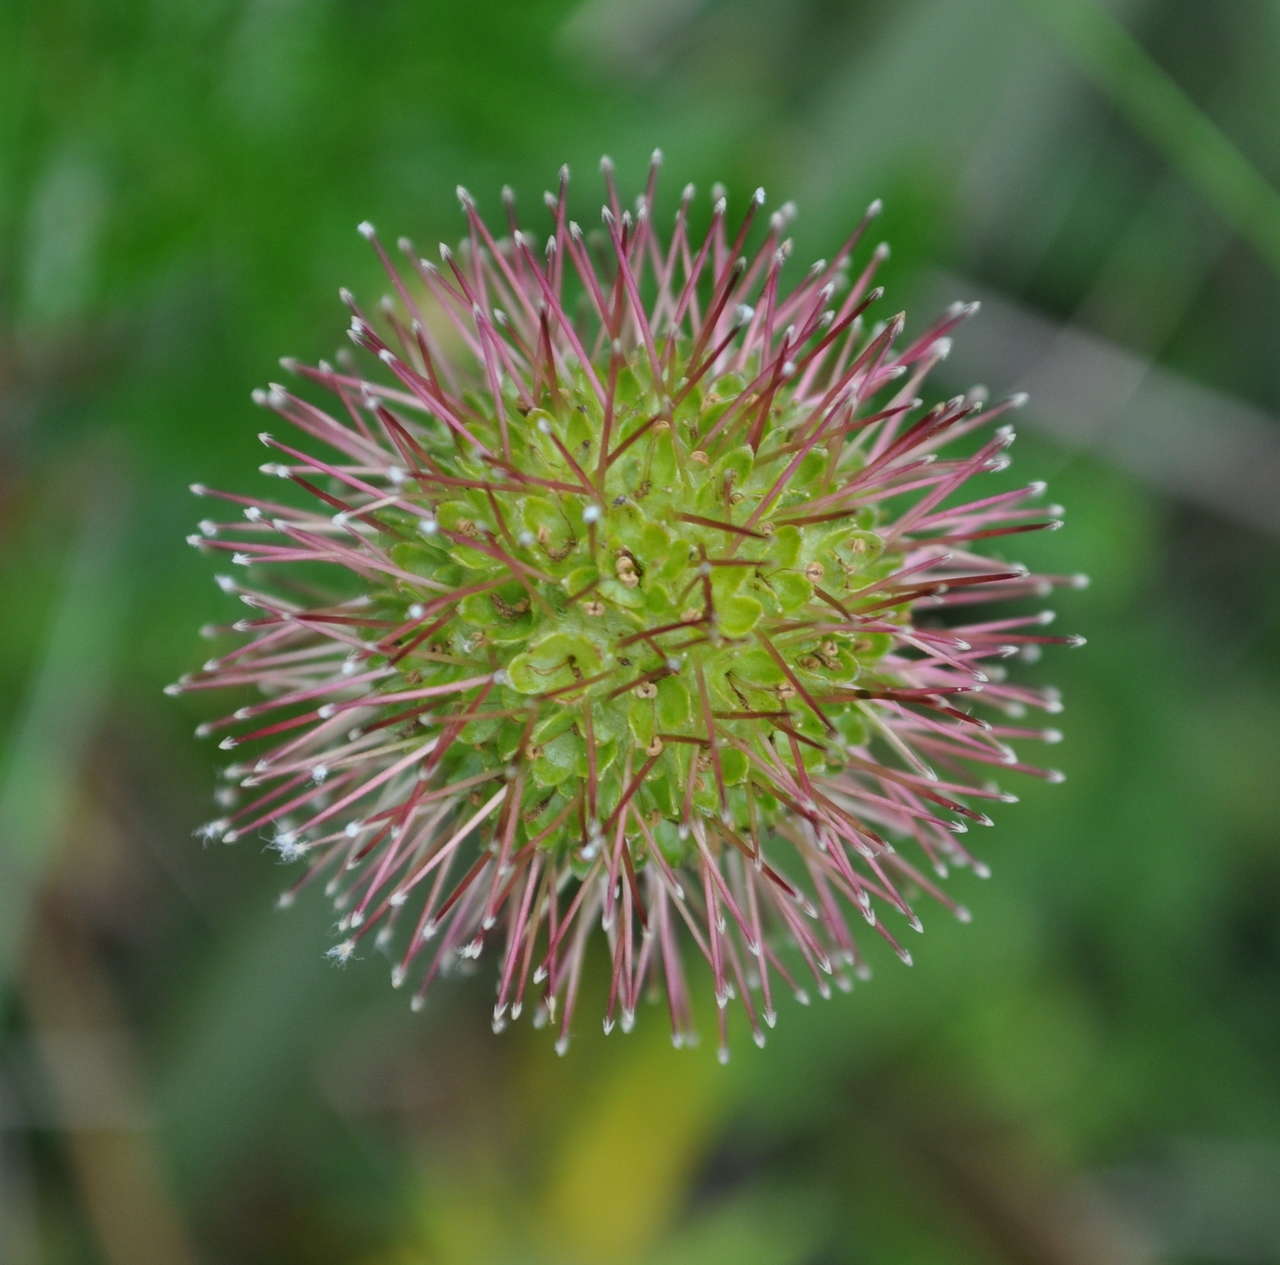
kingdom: Plantae
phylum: Tracheophyta
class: Magnoliopsida
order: Rosales
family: Rosaceae
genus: Acaena
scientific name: Acaena novae-zelandiae
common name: Pirri-pirri-bur
